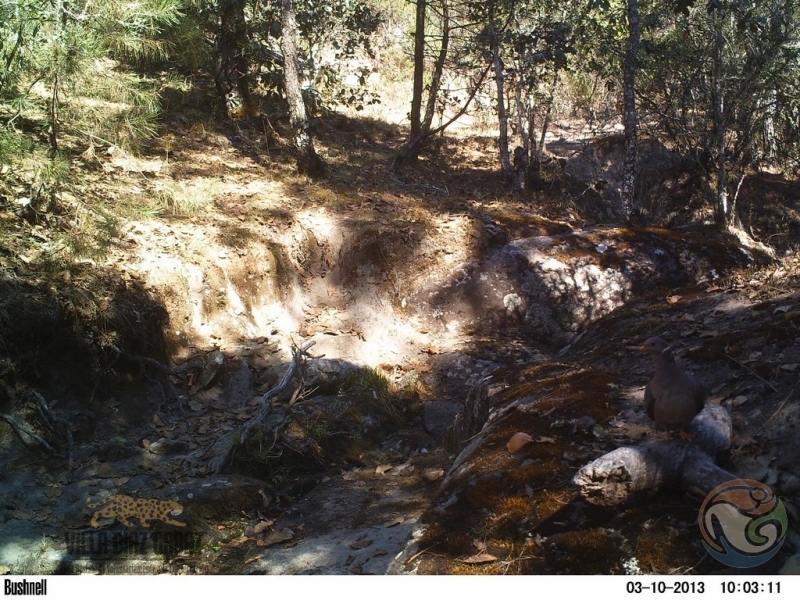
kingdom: Animalia
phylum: Chordata
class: Aves
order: Columbiformes
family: Columbidae
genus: Patagioenas
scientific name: Patagioenas fasciata
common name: Band-tailed pigeon
